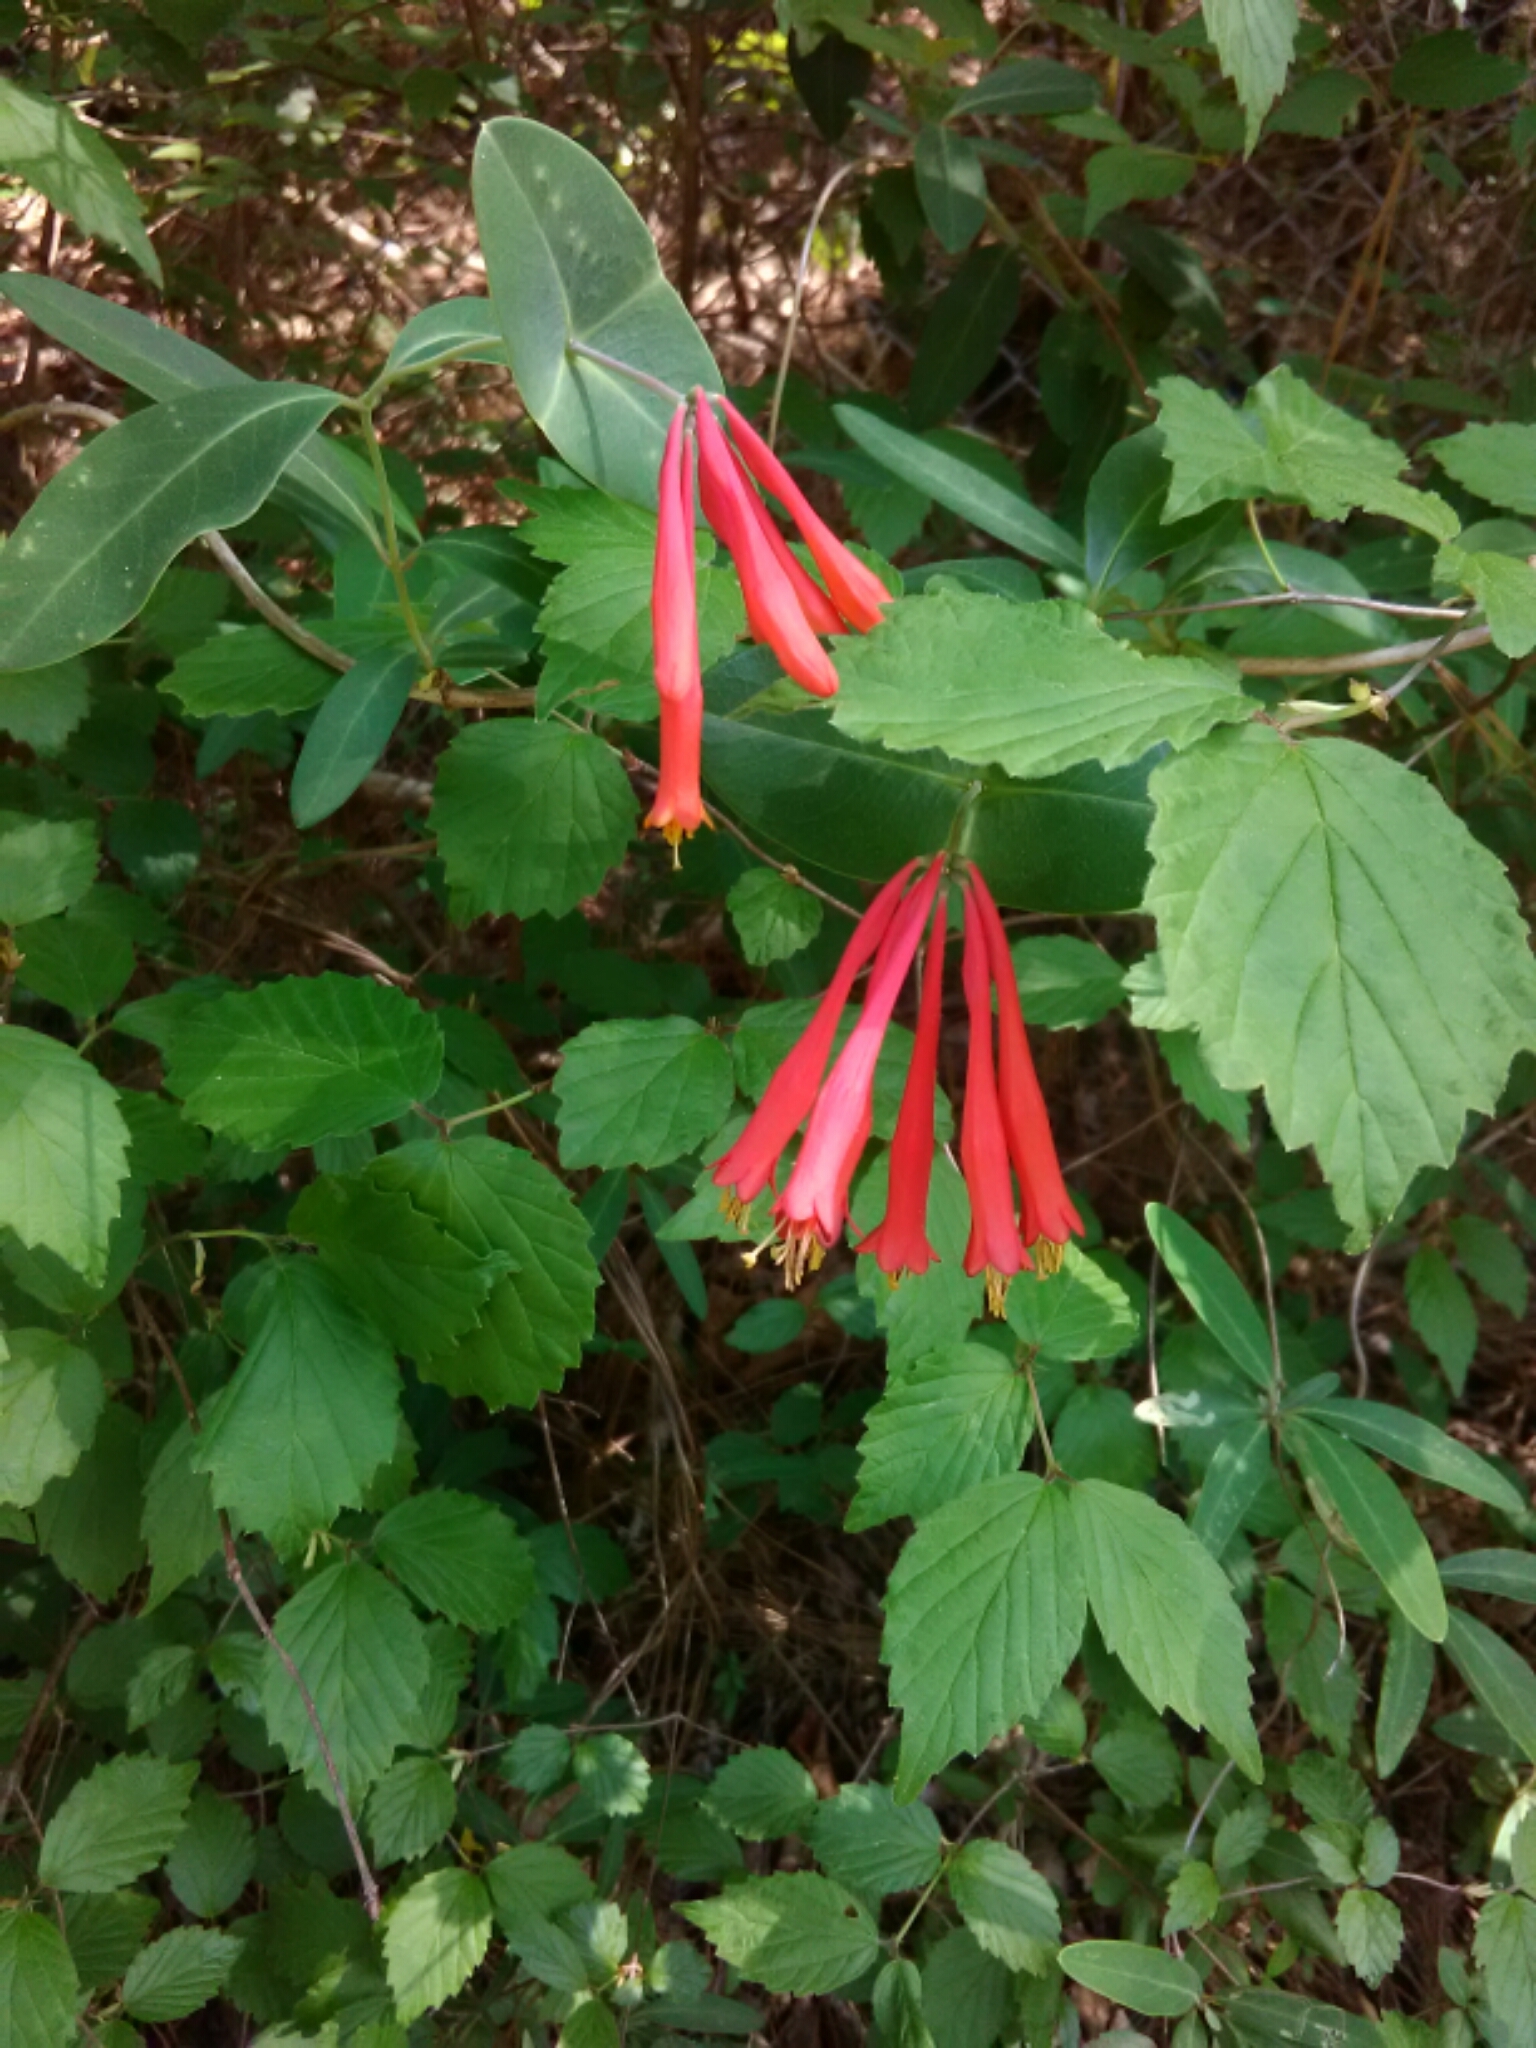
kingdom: Plantae
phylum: Tracheophyta
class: Magnoliopsida
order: Dipsacales
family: Caprifoliaceae
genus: Lonicera
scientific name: Lonicera sempervirens
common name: Coral honeysuckle
